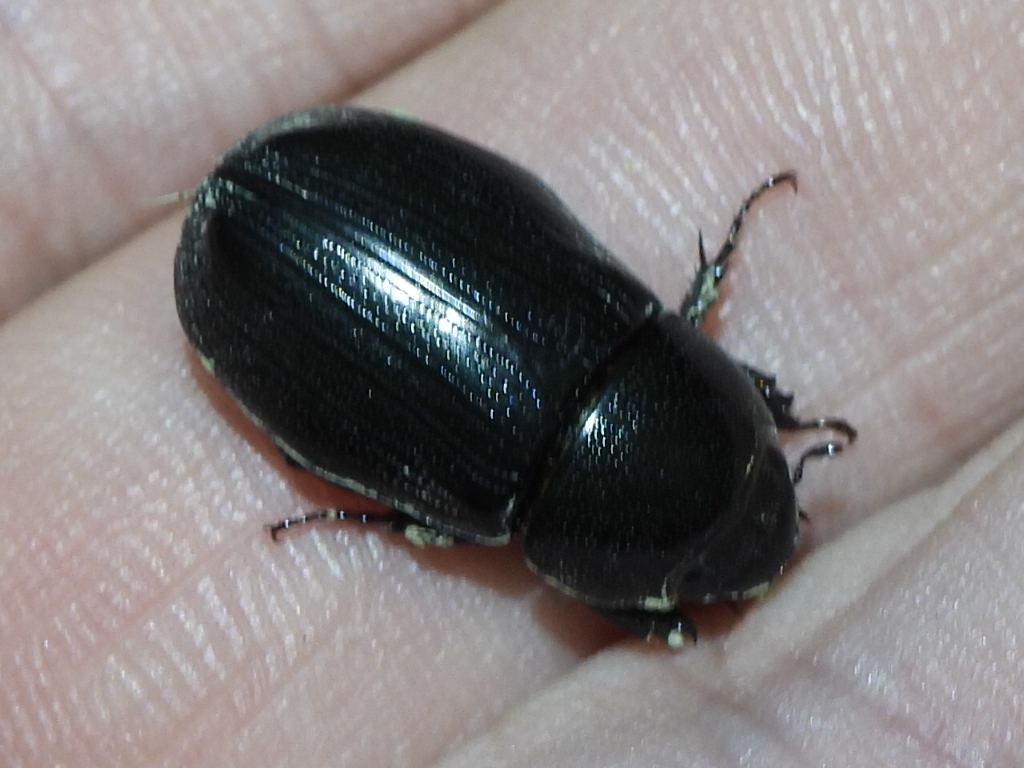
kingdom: Animalia
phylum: Arthropoda
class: Insecta
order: Coleoptera
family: Scarabaeidae
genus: Dyscinetus
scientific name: Dyscinetus morator
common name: Rice beetle
